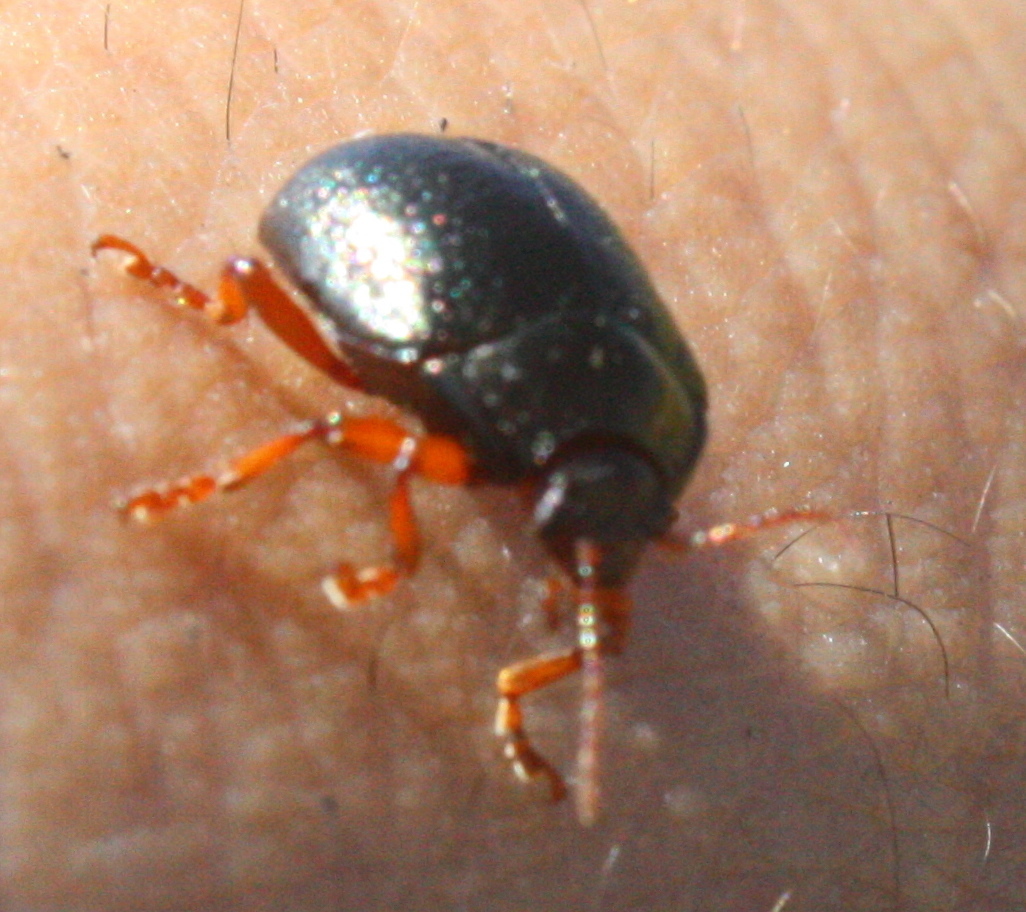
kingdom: Animalia
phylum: Arthropoda
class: Insecta
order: Coleoptera
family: Chrysomelidae
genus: Chrysolina
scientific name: Chrysolina bankii
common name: Leaf beetle
